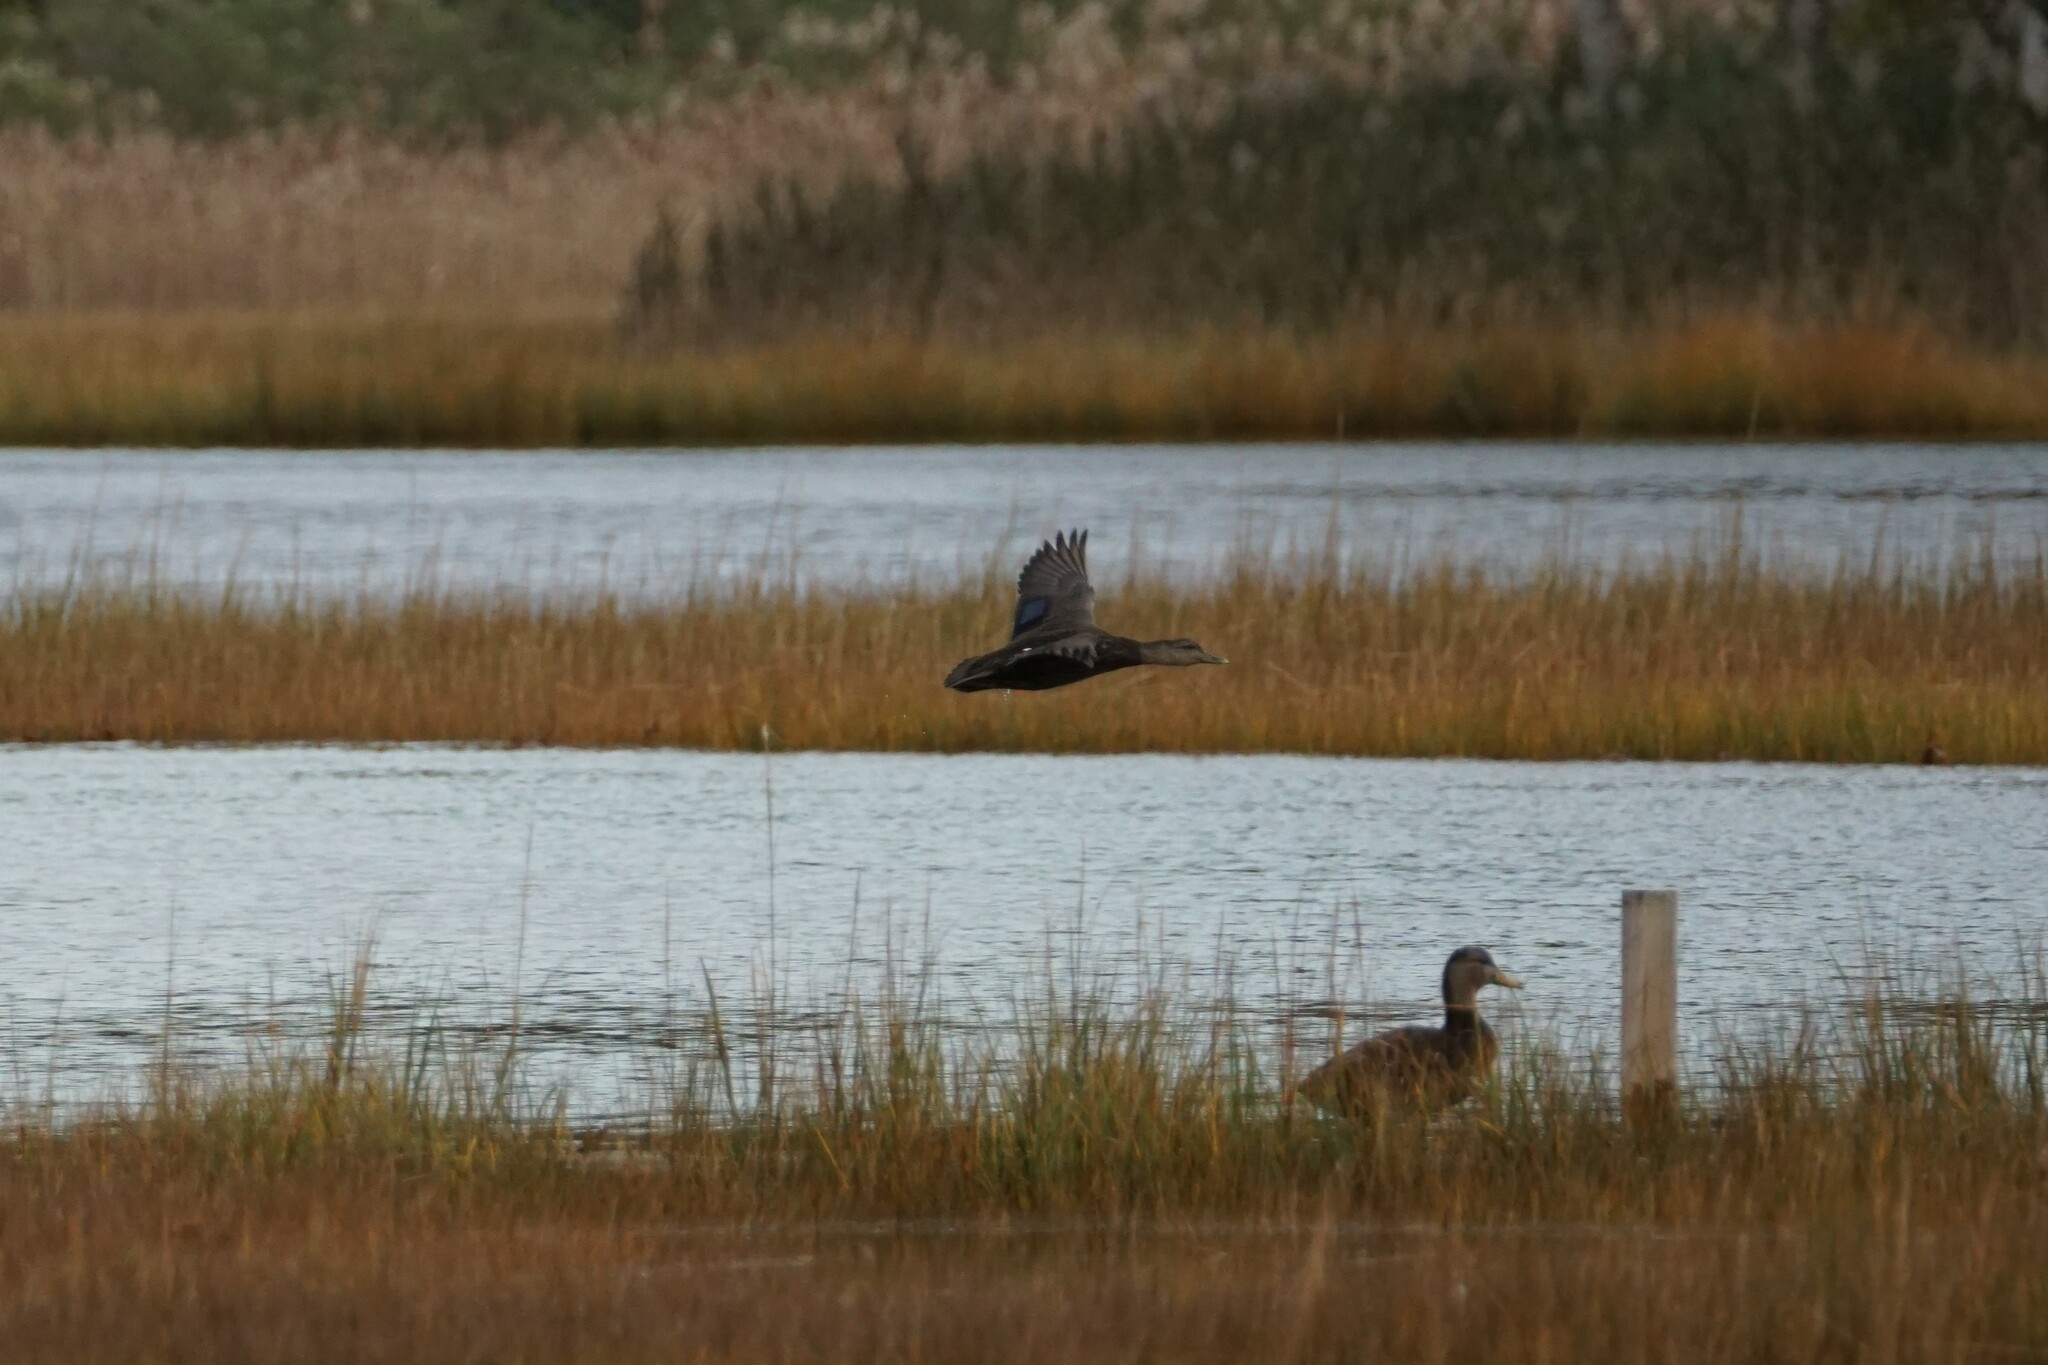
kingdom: Animalia
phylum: Chordata
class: Aves
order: Anseriformes
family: Anatidae
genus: Anas
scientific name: Anas rubripes
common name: American black duck
